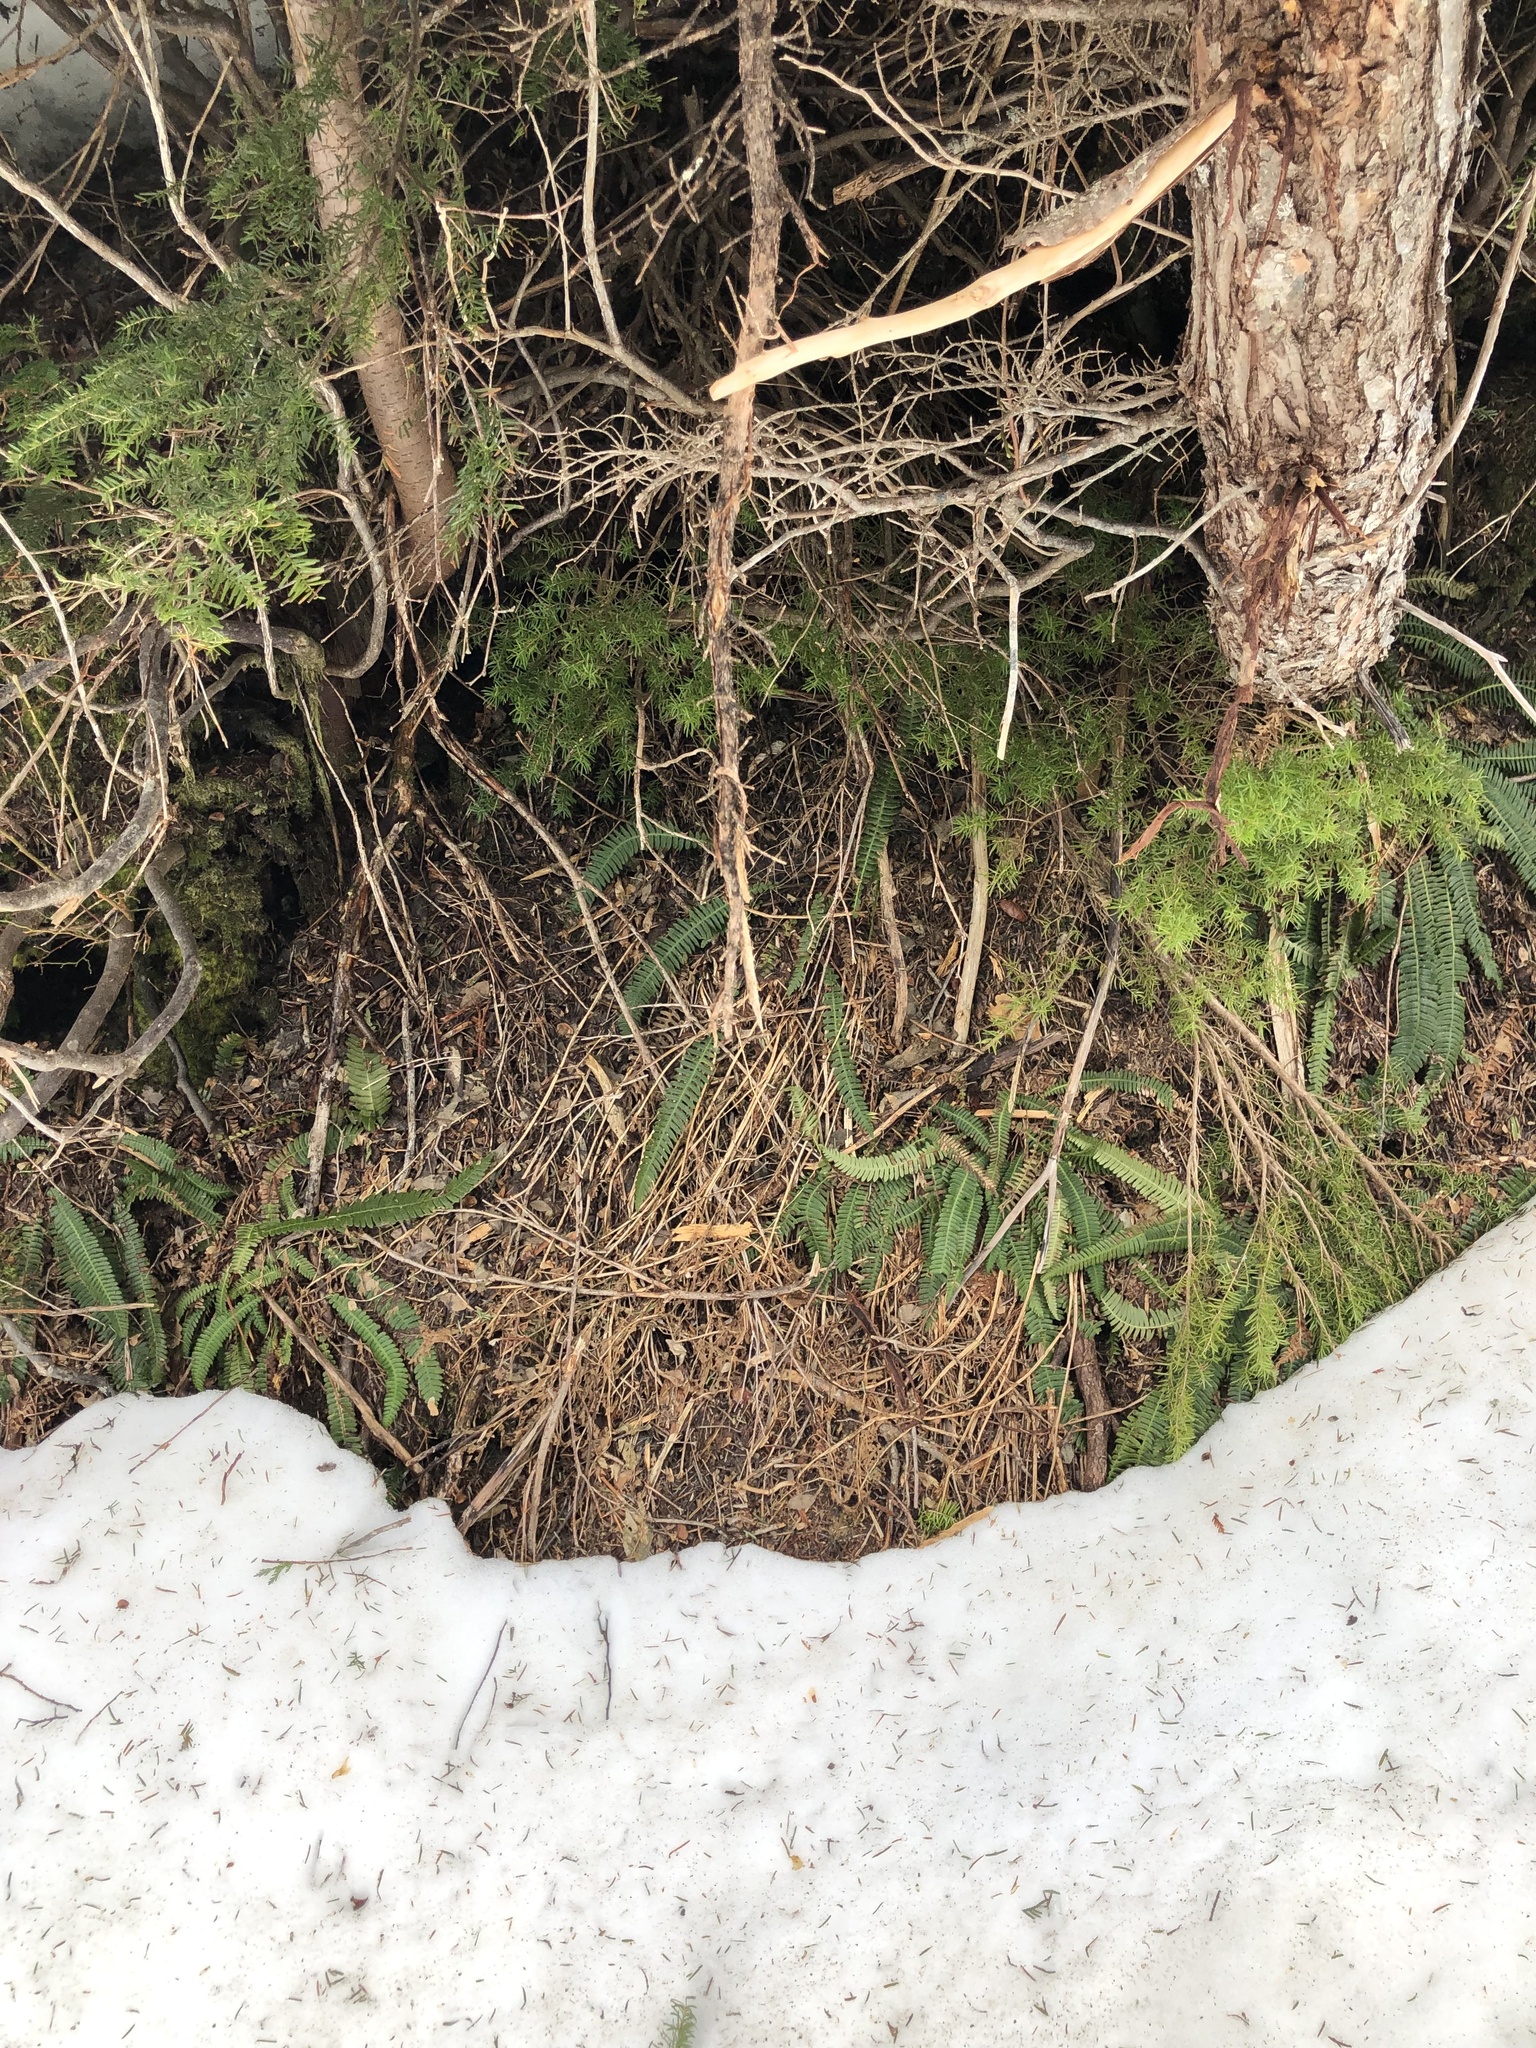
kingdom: Plantae
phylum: Tracheophyta
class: Polypodiopsida
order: Polypodiales
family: Blechnaceae
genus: Struthiopteris
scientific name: Struthiopteris spicant
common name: Deer fern
